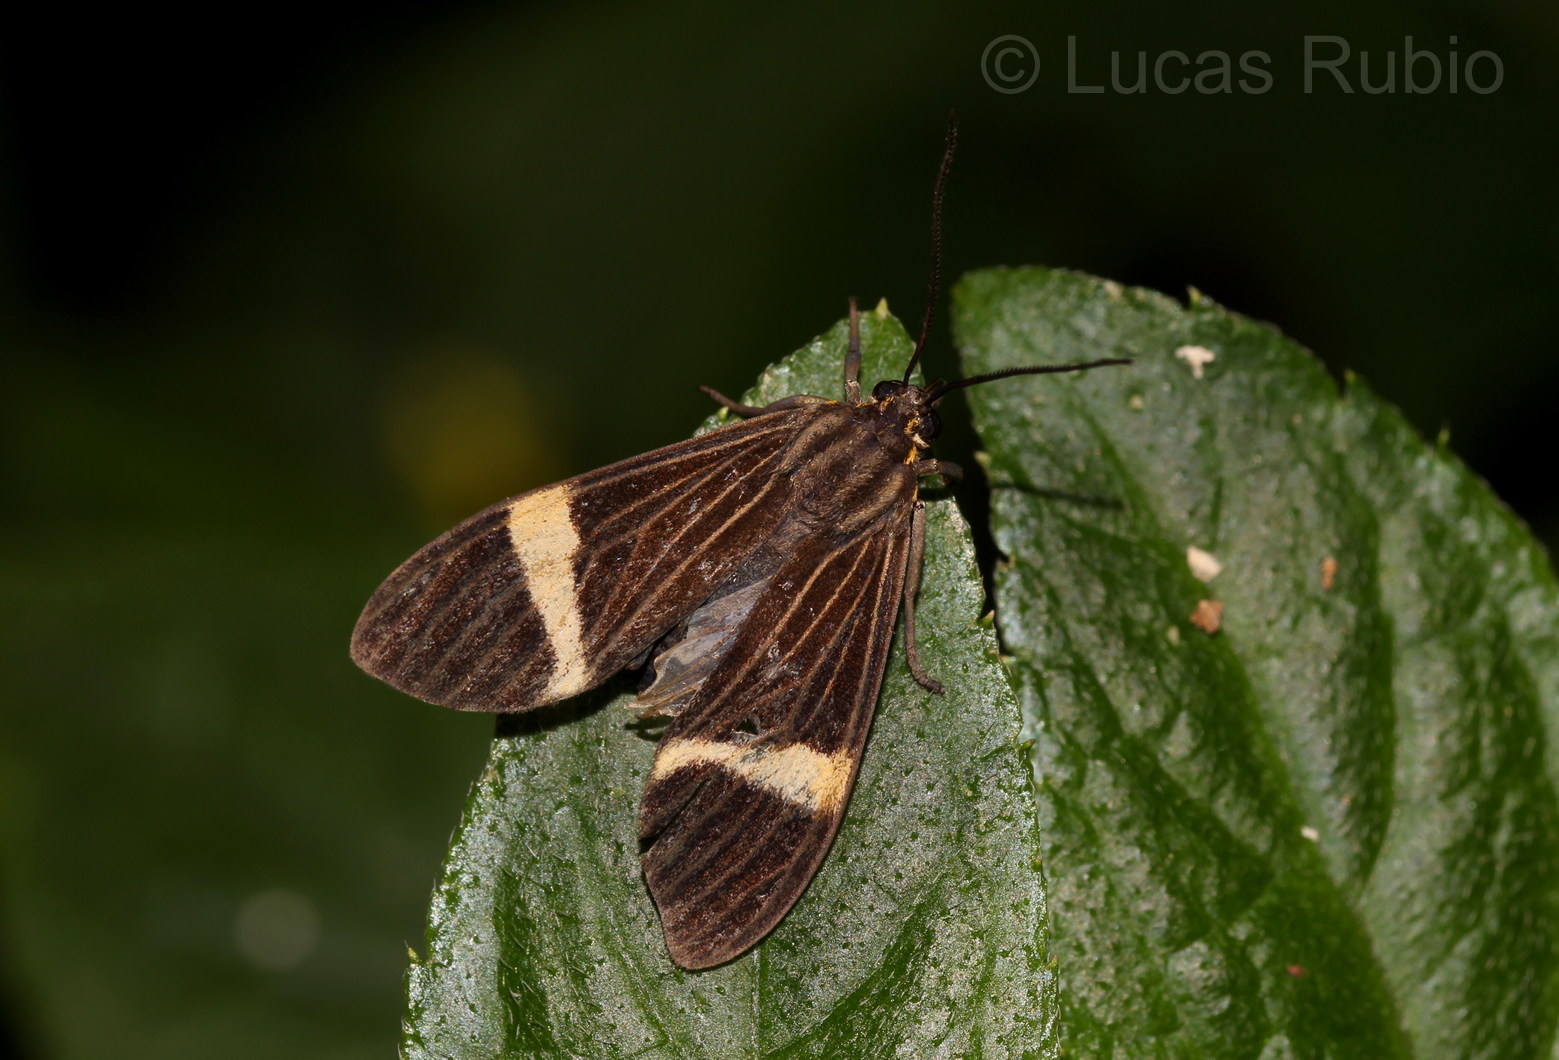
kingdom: Animalia
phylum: Arthropoda
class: Insecta
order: Lepidoptera
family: Erebidae
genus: Aclytia
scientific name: Aclytia heber
